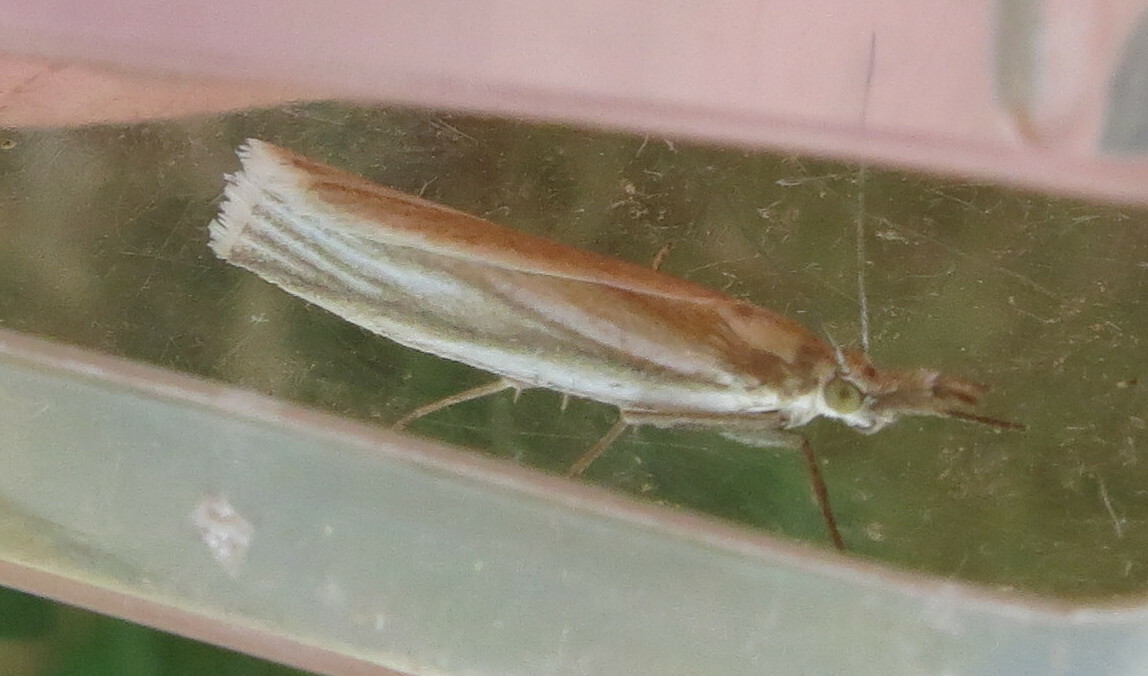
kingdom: Animalia
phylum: Arthropoda
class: Insecta
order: Lepidoptera
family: Crambidae
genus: Crambus
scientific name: Crambus perlellus
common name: Yellow satin veneer
